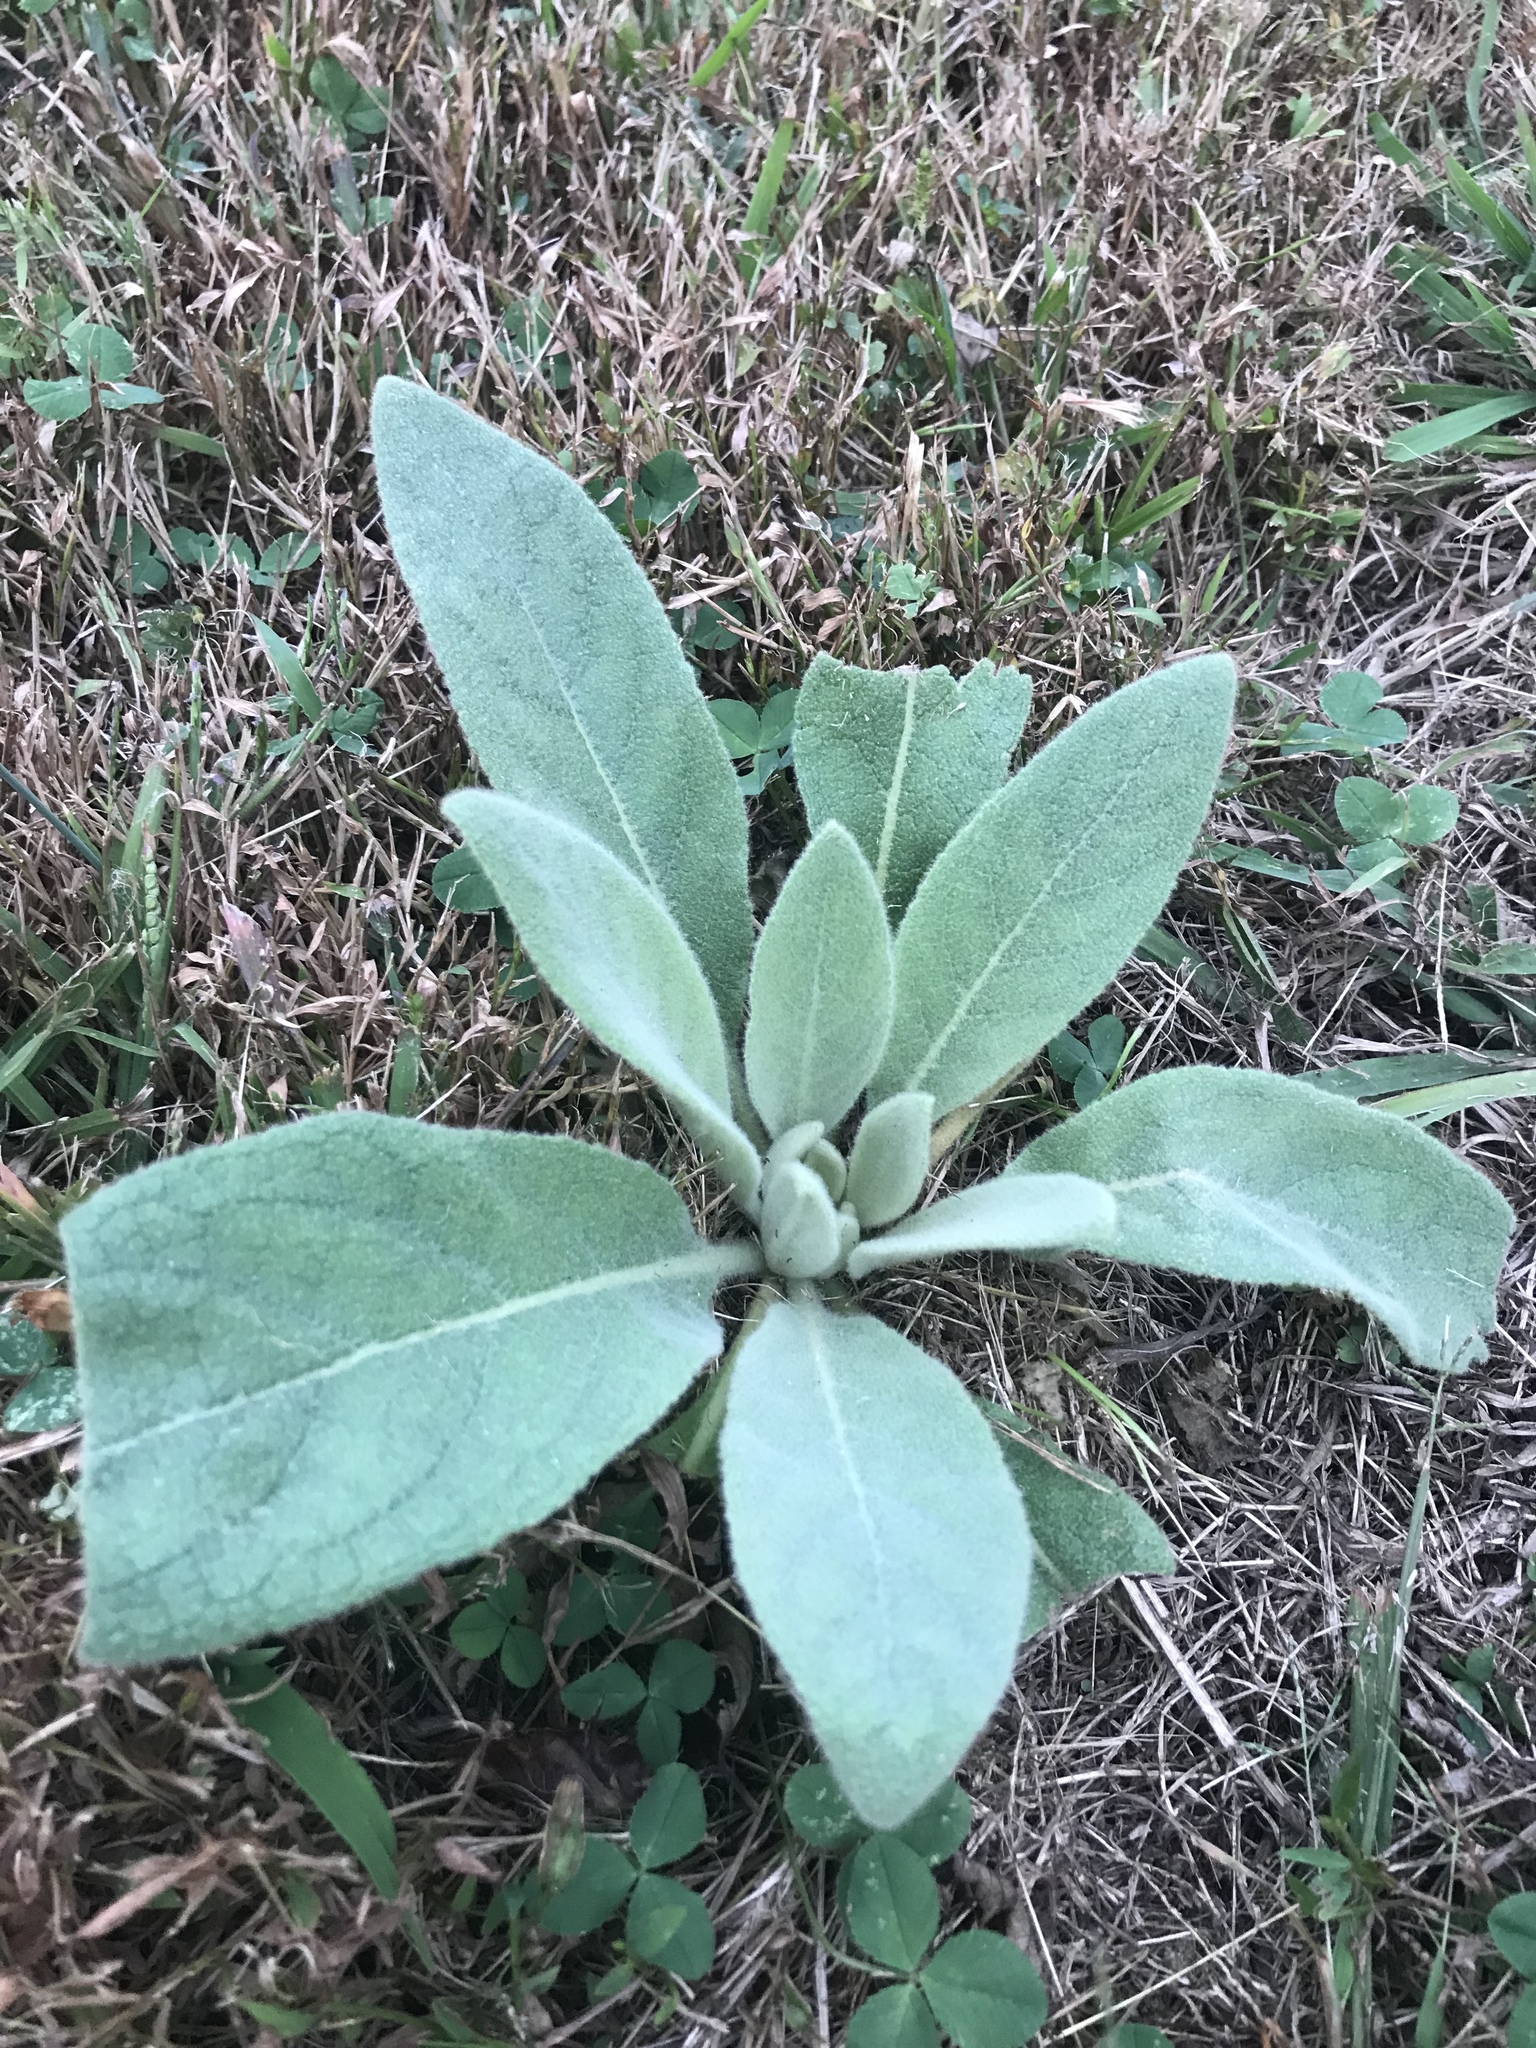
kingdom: Plantae
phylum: Tracheophyta
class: Magnoliopsida
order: Lamiales
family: Scrophulariaceae
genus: Verbascum
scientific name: Verbascum thapsus
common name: Common mullein
